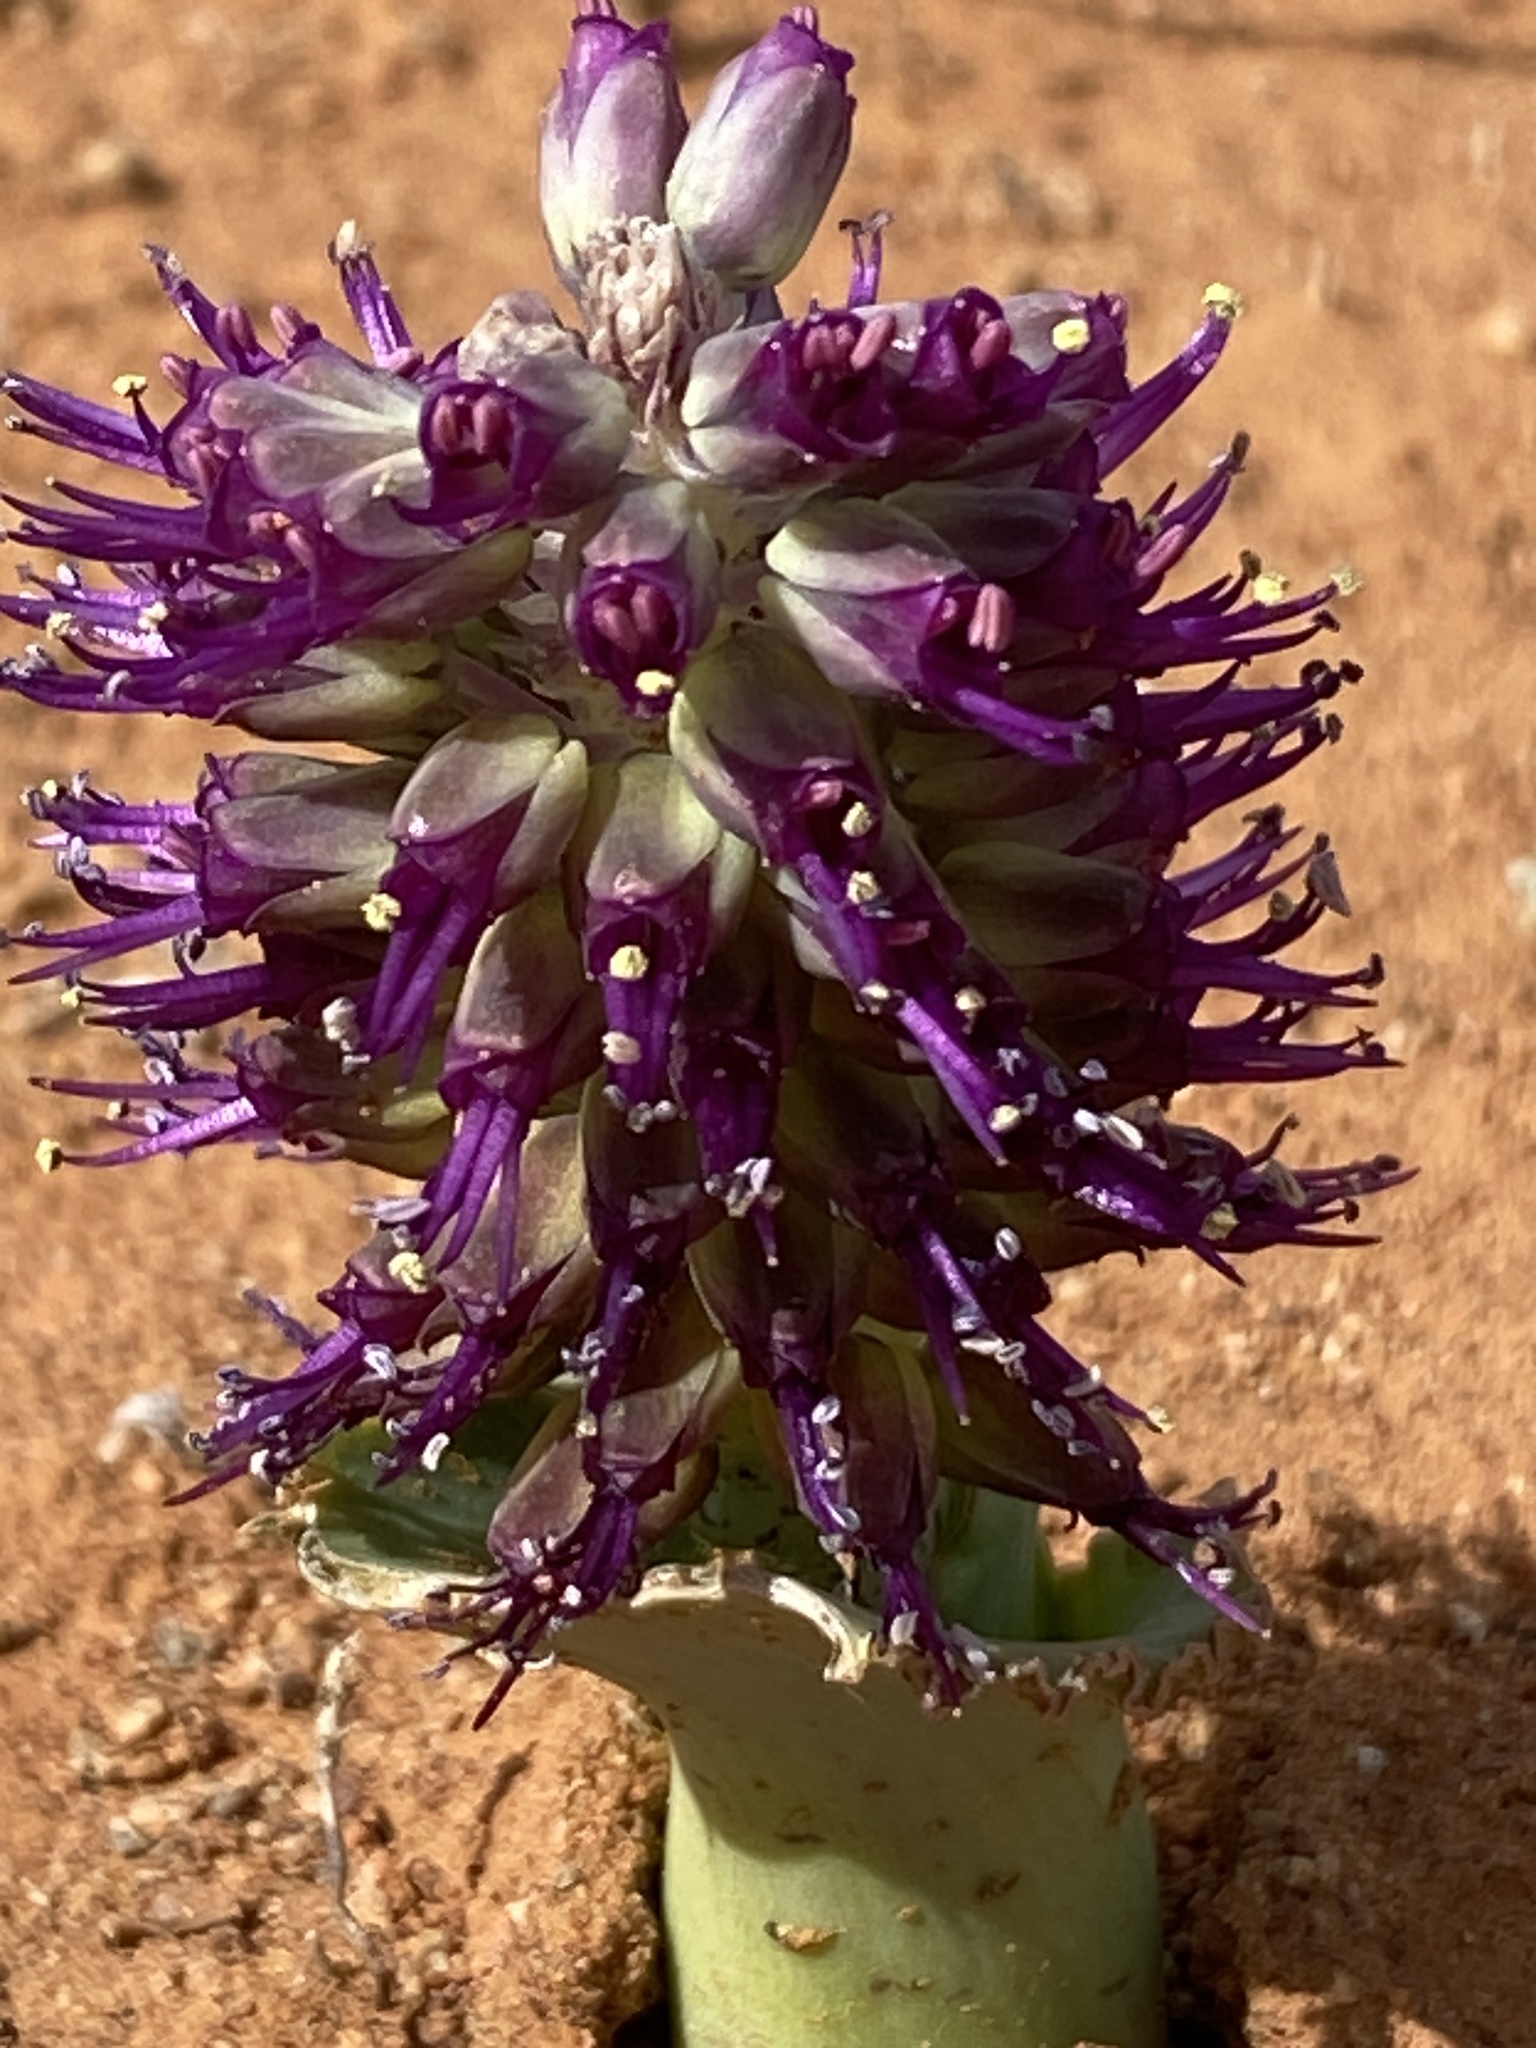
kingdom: Plantae
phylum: Tracheophyta
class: Liliopsida
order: Asparagales
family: Asparagaceae
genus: Lachenalia
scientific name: Lachenalia violacea
